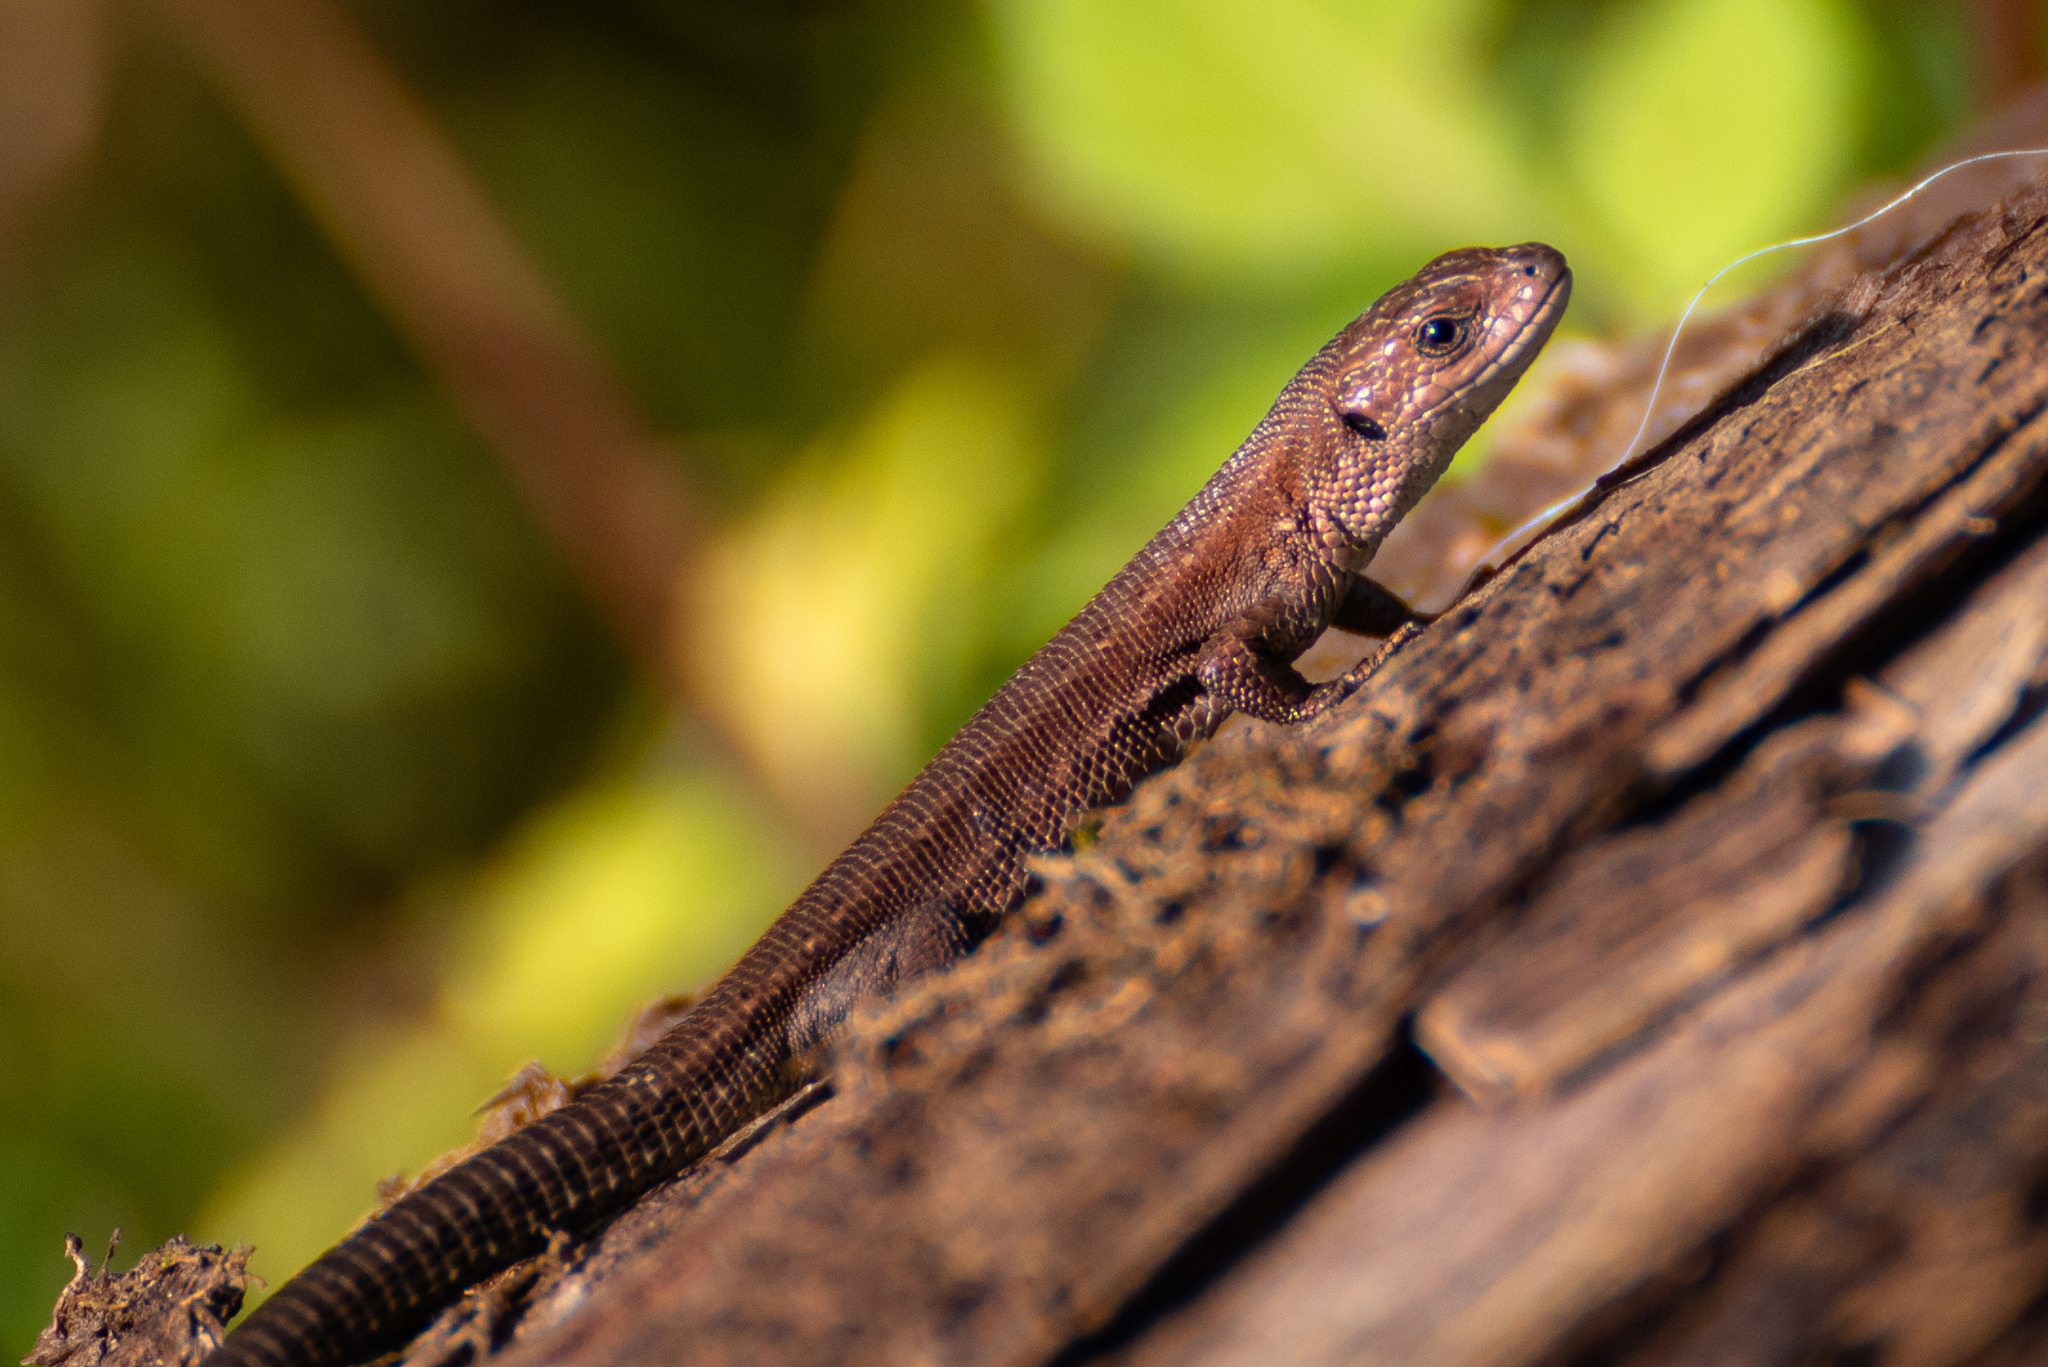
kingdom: Animalia
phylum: Chordata
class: Squamata
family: Lacertidae
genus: Zootoca
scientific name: Zootoca vivipara
